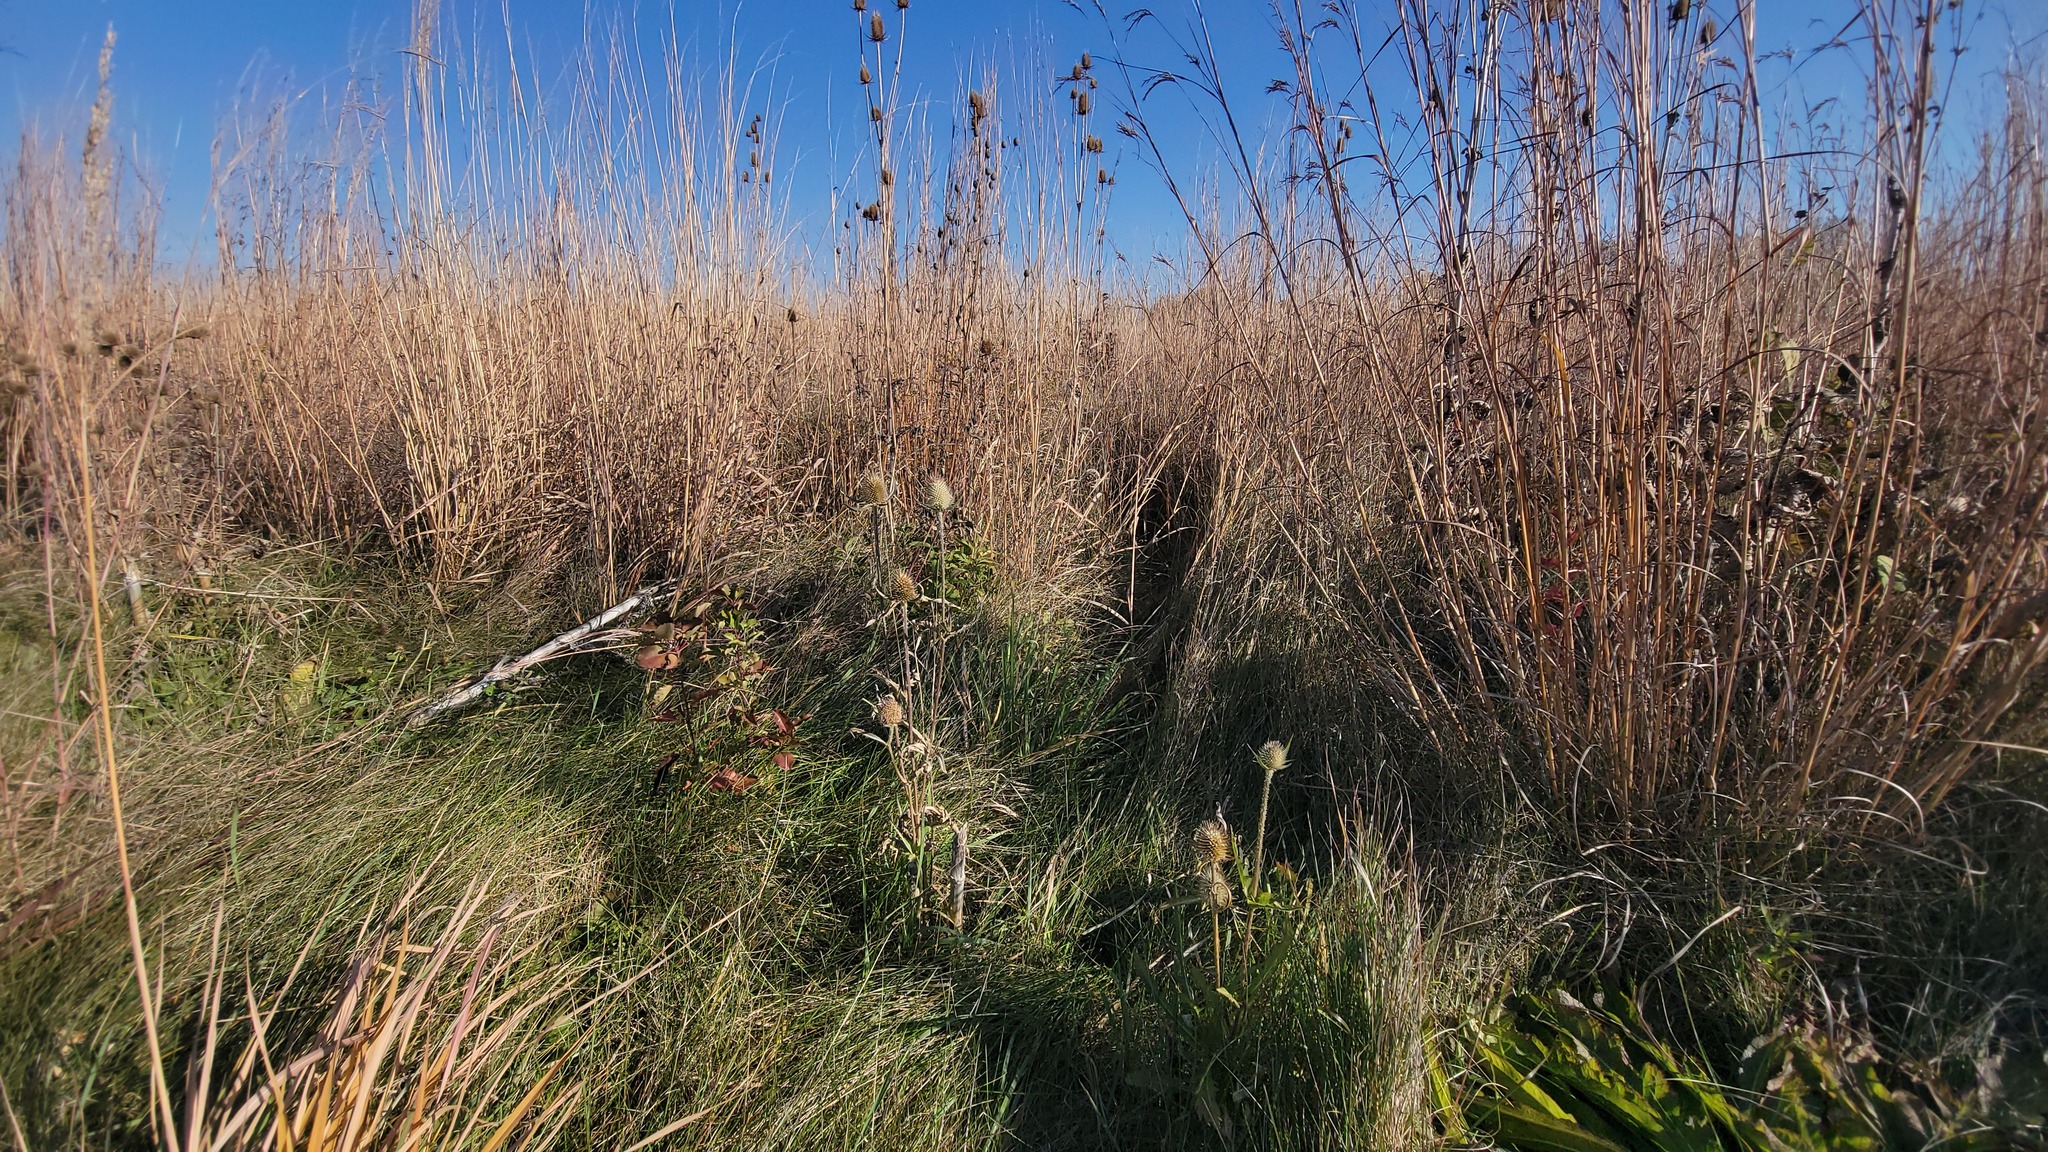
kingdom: Plantae
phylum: Tracheophyta
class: Magnoliopsida
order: Dipsacales
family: Caprifoliaceae
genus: Dipsacus
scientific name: Dipsacus laciniatus
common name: Cut-leaved teasel
